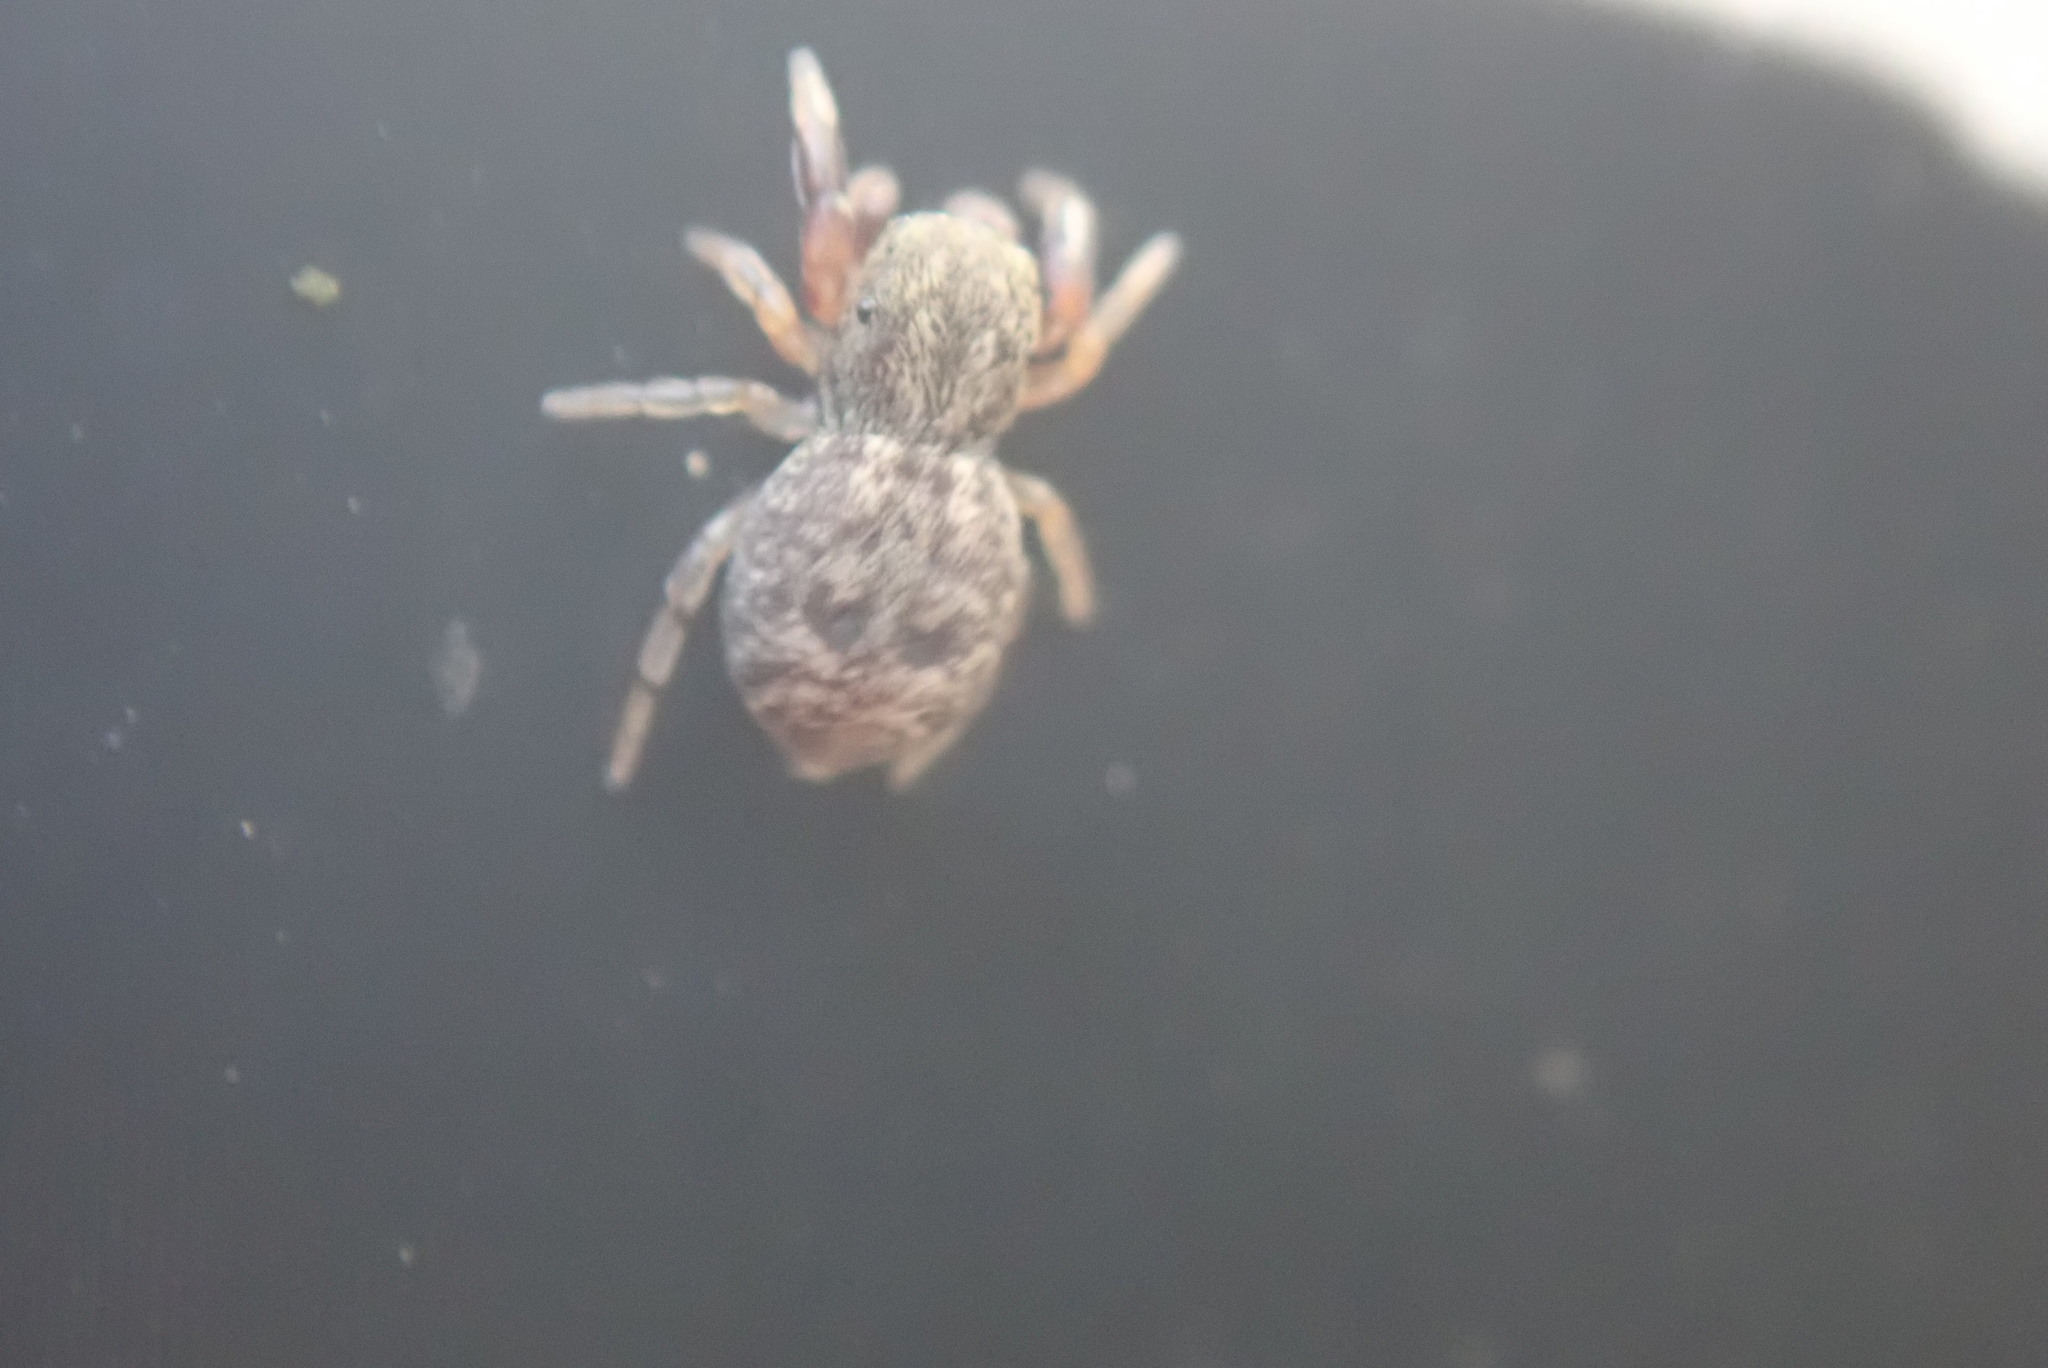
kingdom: Animalia
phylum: Arthropoda
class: Arachnida
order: Araneae
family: Salticidae
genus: Ballus
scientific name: Ballus chalybeius
